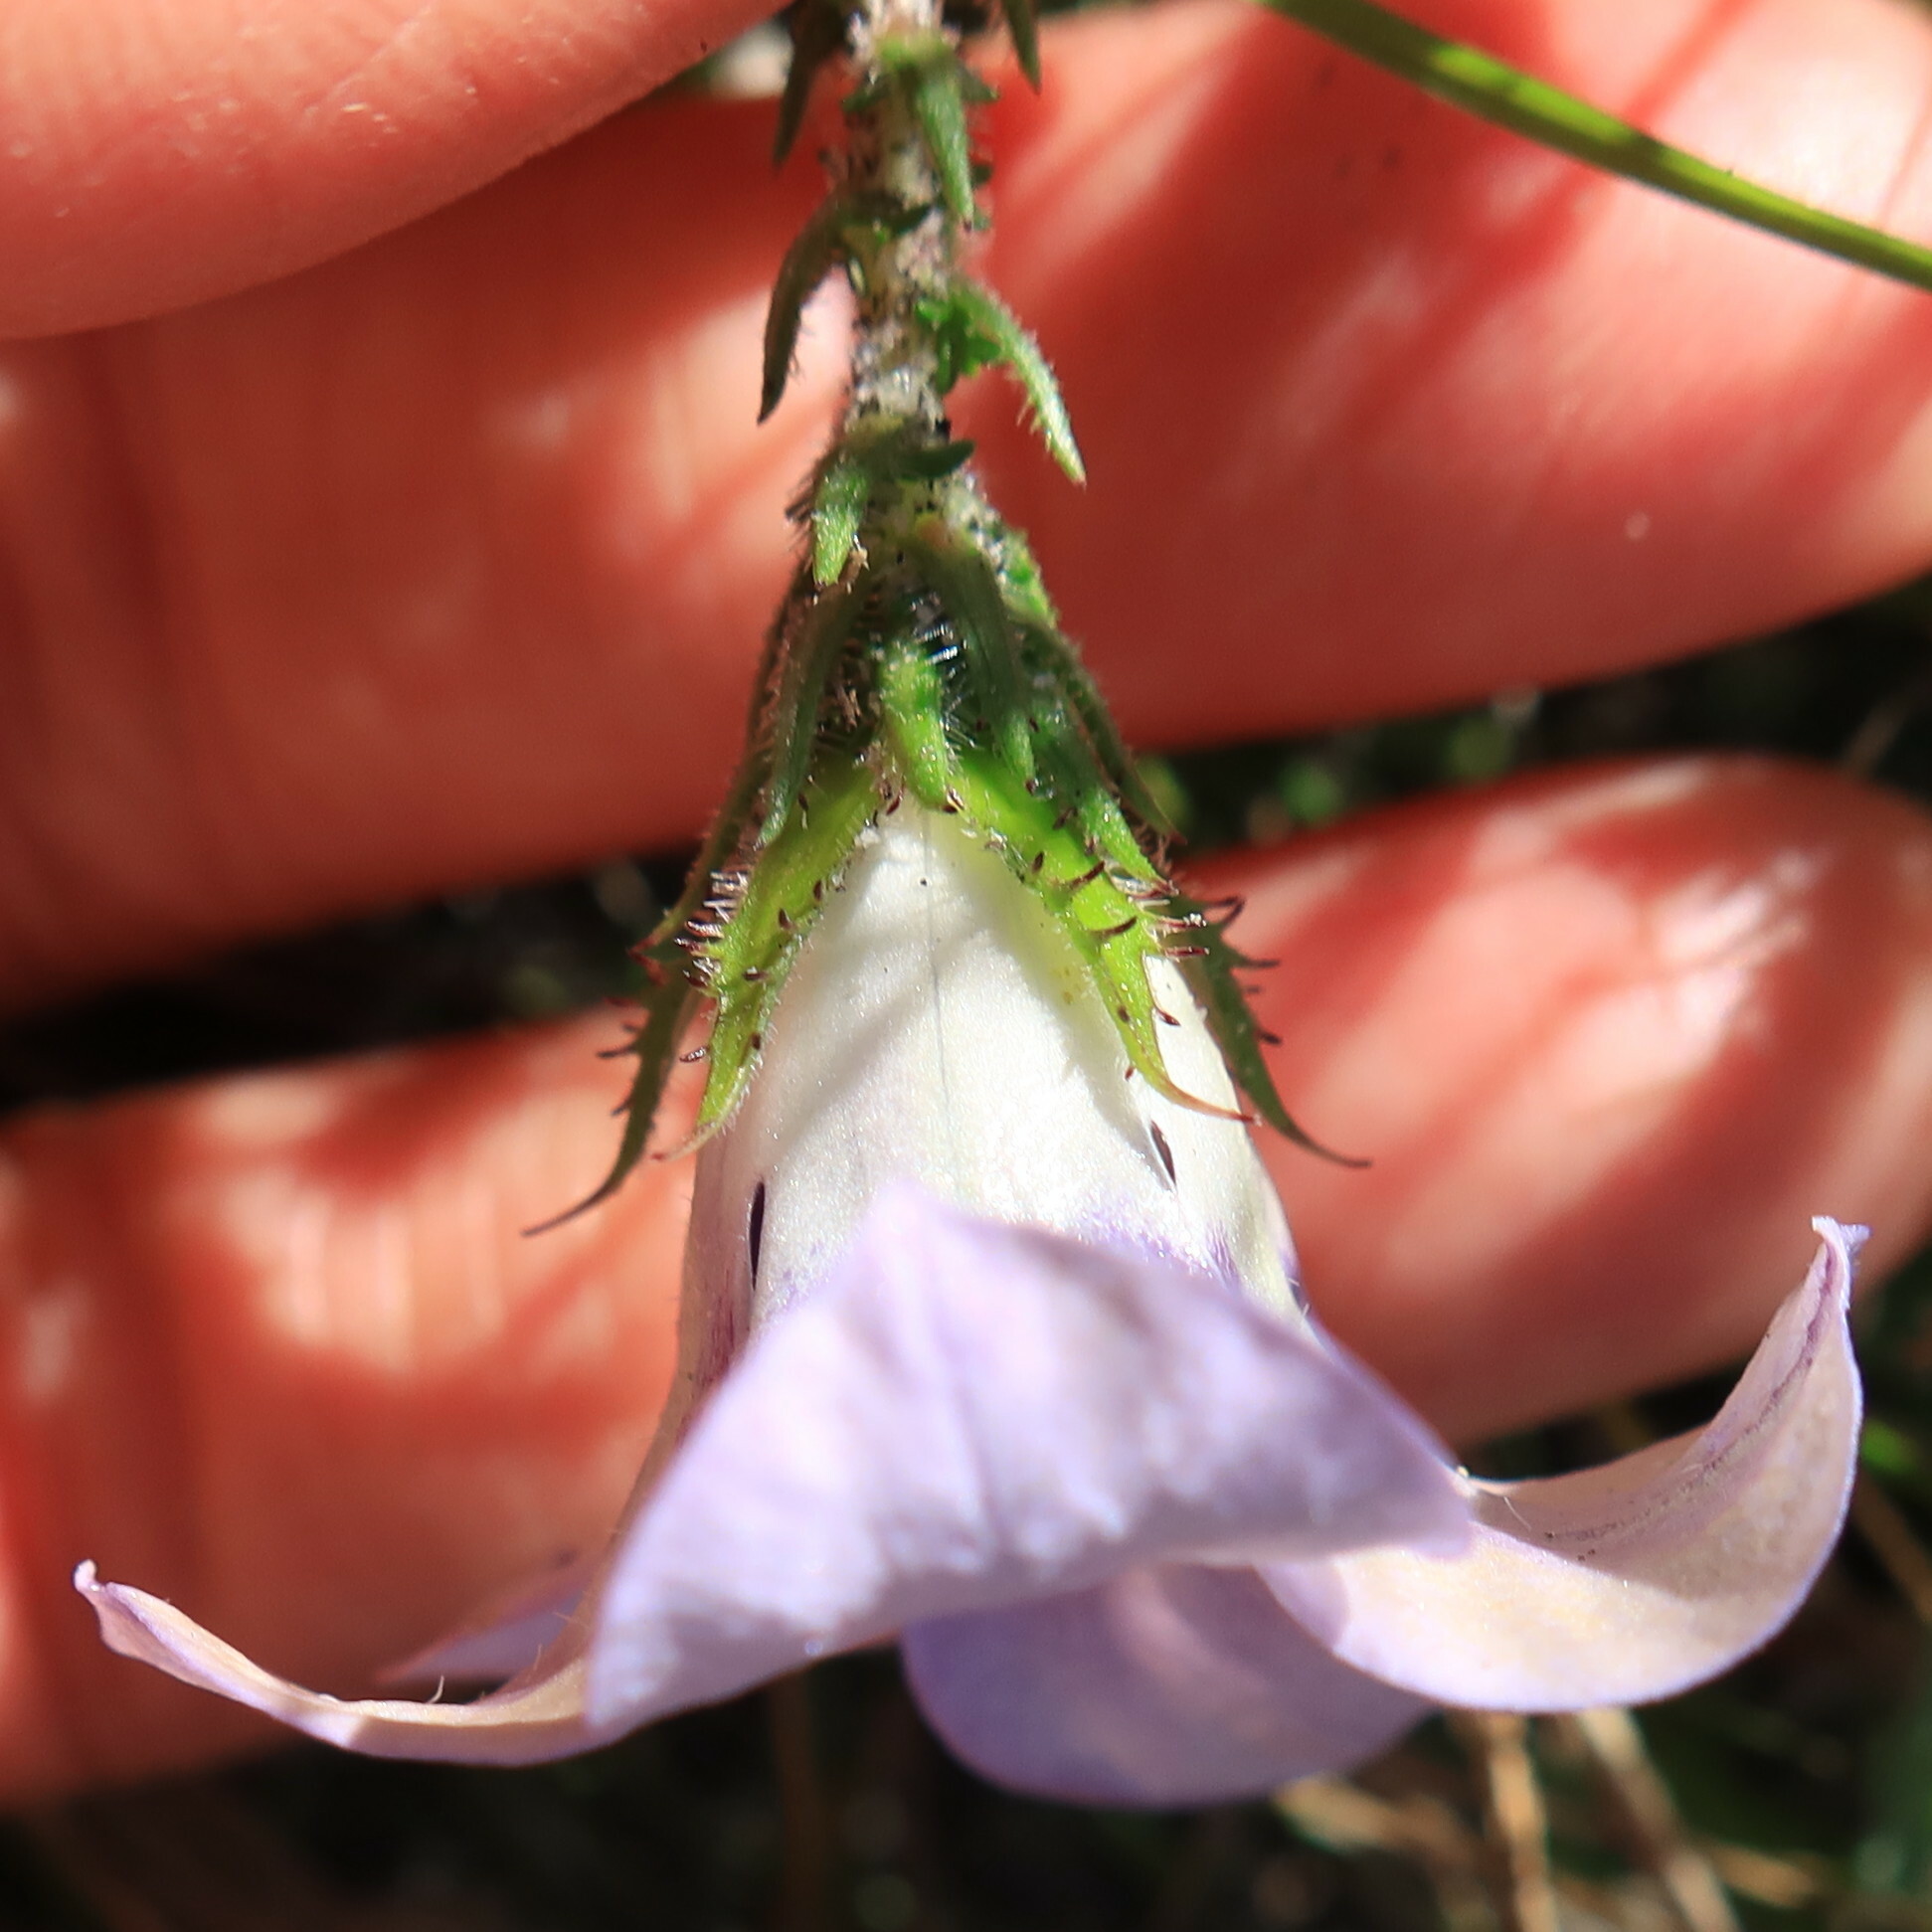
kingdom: Plantae
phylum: Tracheophyta
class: Magnoliopsida
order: Asterales
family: Campanulaceae
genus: Roella
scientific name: Roella ciliata
